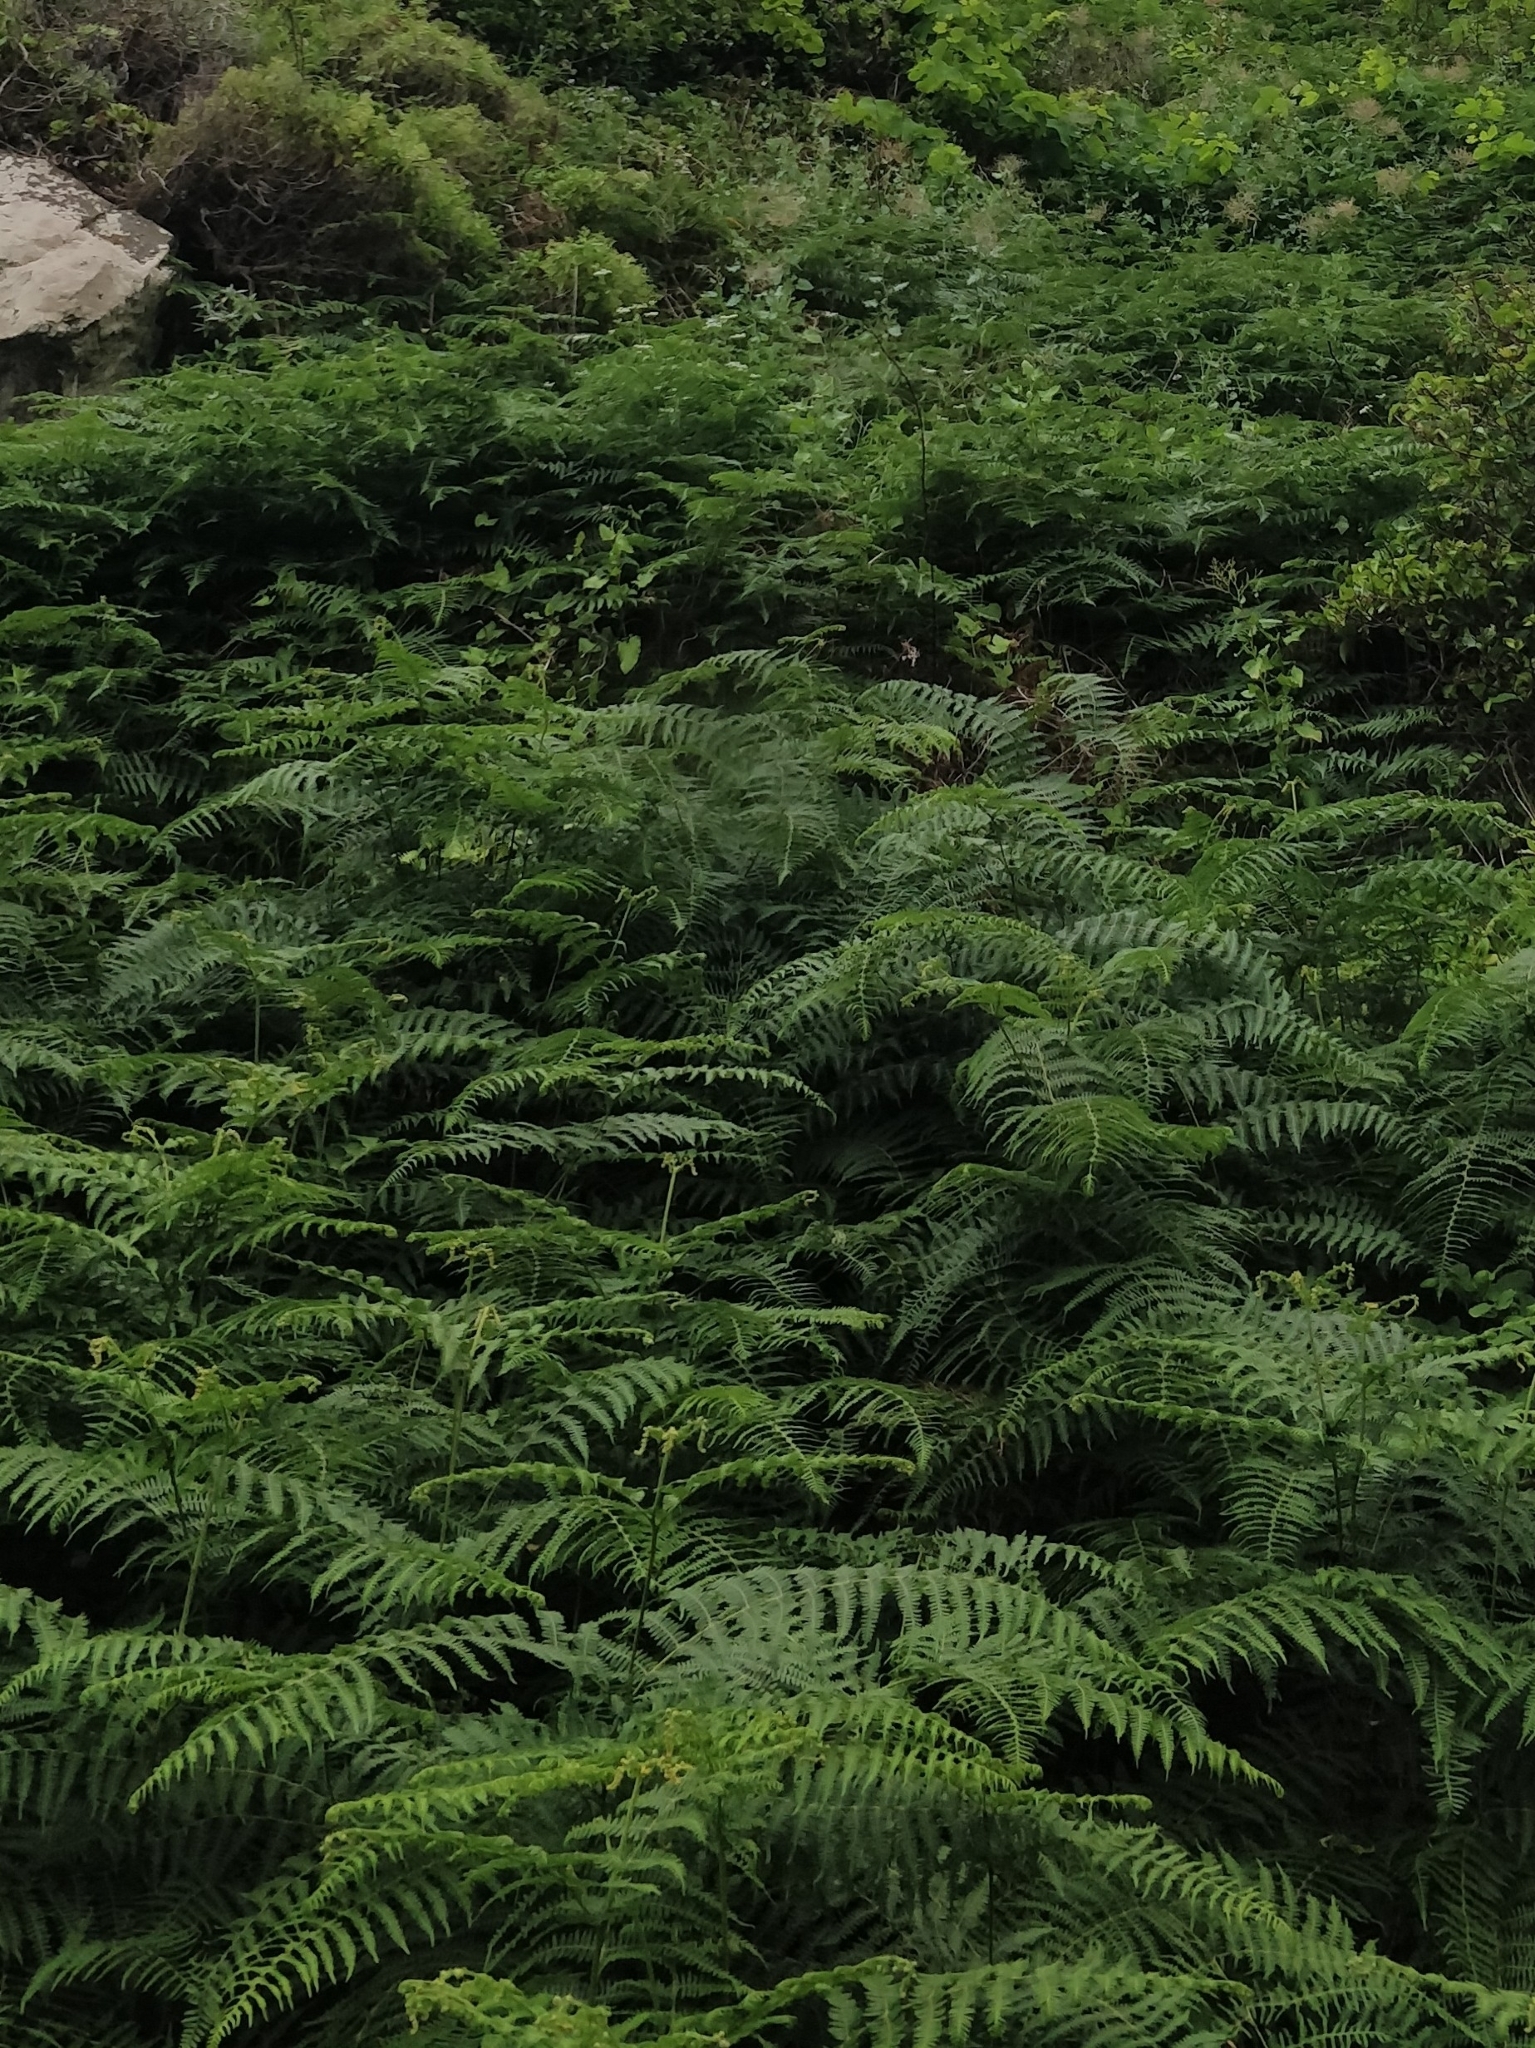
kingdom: Plantae
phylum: Tracheophyta
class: Polypodiopsida
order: Polypodiales
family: Dennstaedtiaceae
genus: Pteridium
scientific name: Pteridium aquilinum
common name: Bracken
